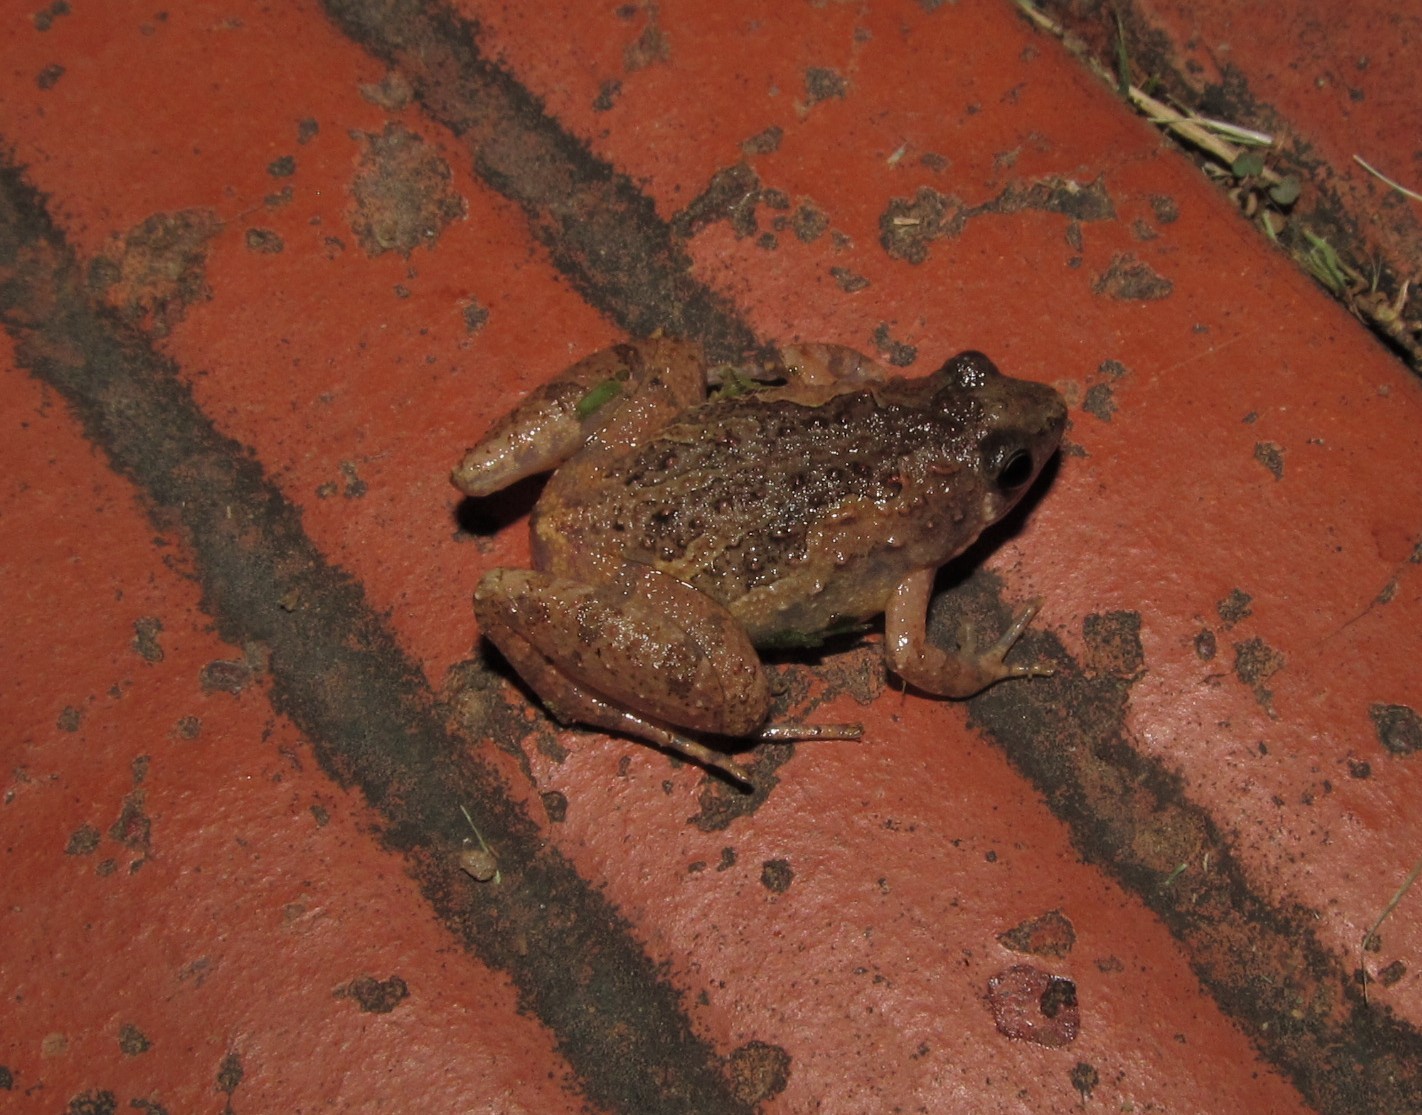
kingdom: Animalia
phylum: Chordata
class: Amphibia
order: Anura
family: Microhylidae
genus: Microhyla
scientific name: Microhyla butleri
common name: Butler’s rice frog,painted chorus frog,tubercled pygmy frog
